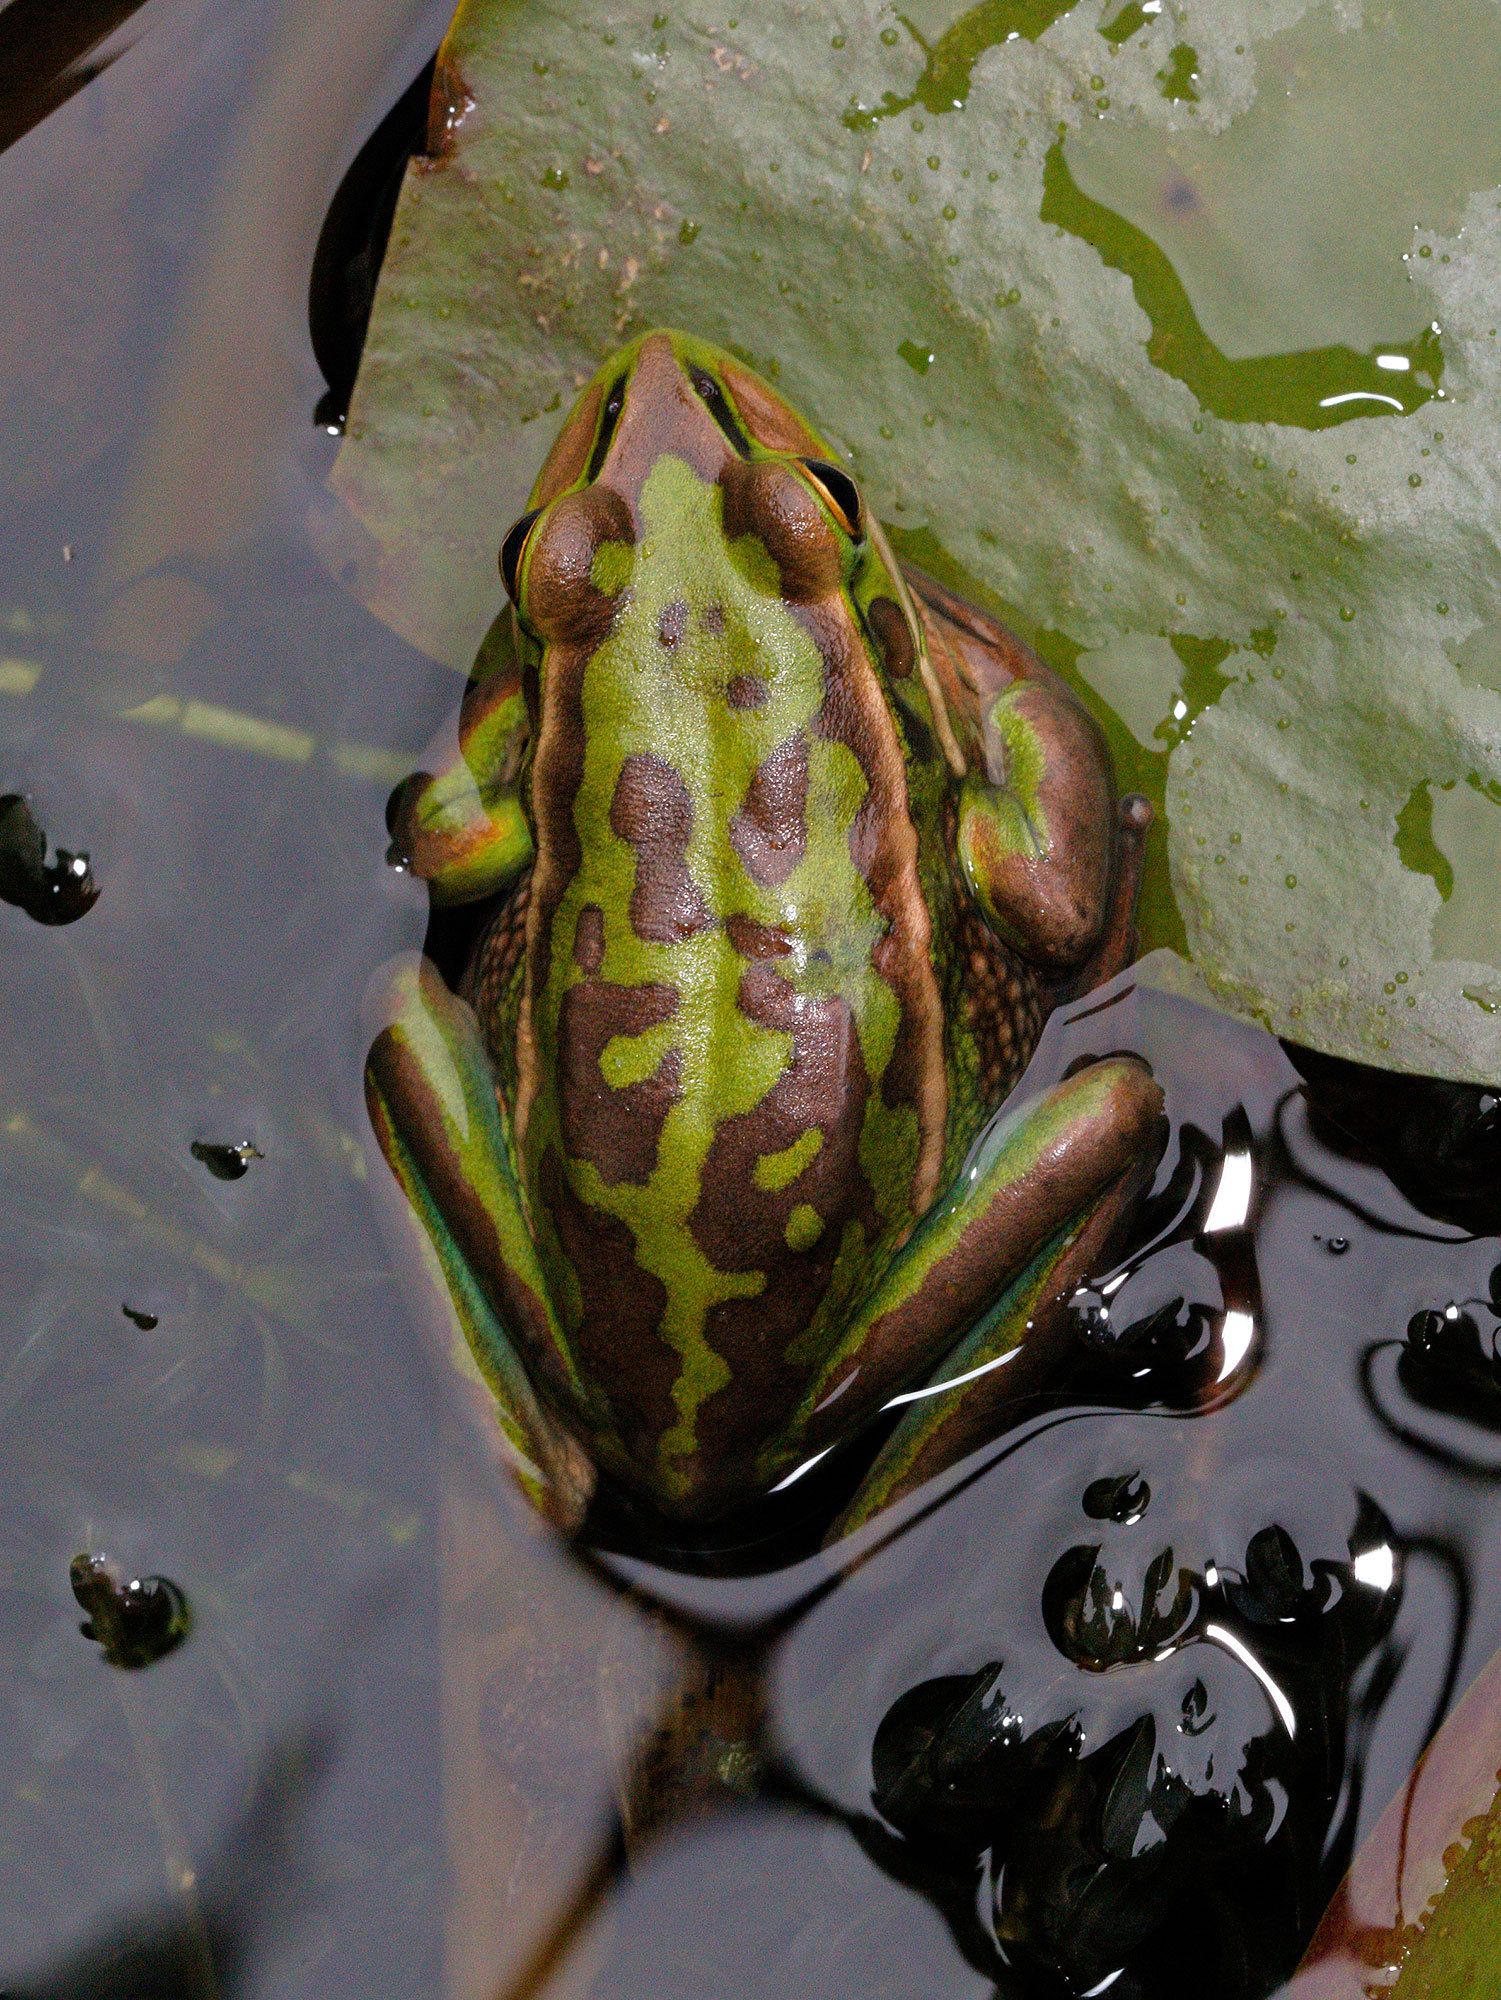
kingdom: Animalia
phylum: Chordata
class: Amphibia
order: Anura
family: Pelodryadidae
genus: Ranoidea
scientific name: Ranoidea aurea
